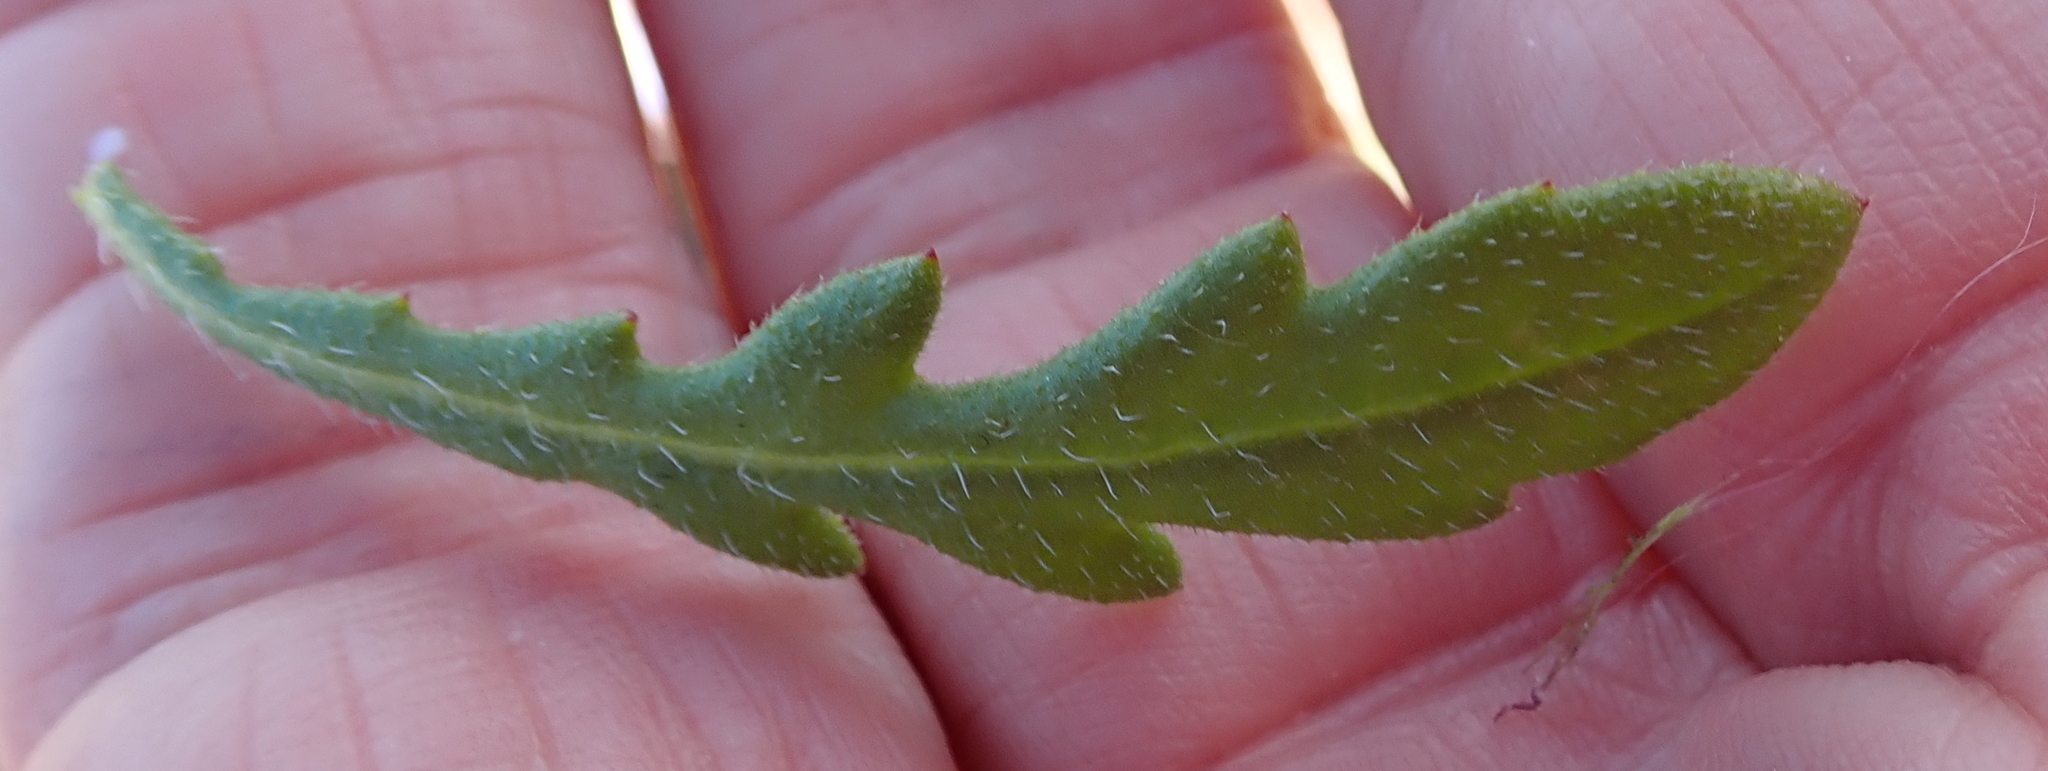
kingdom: Plantae
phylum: Tracheophyta
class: Magnoliopsida
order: Asterales
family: Asteraceae
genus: Gorteria
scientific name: Gorteria personata
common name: Gorteria
